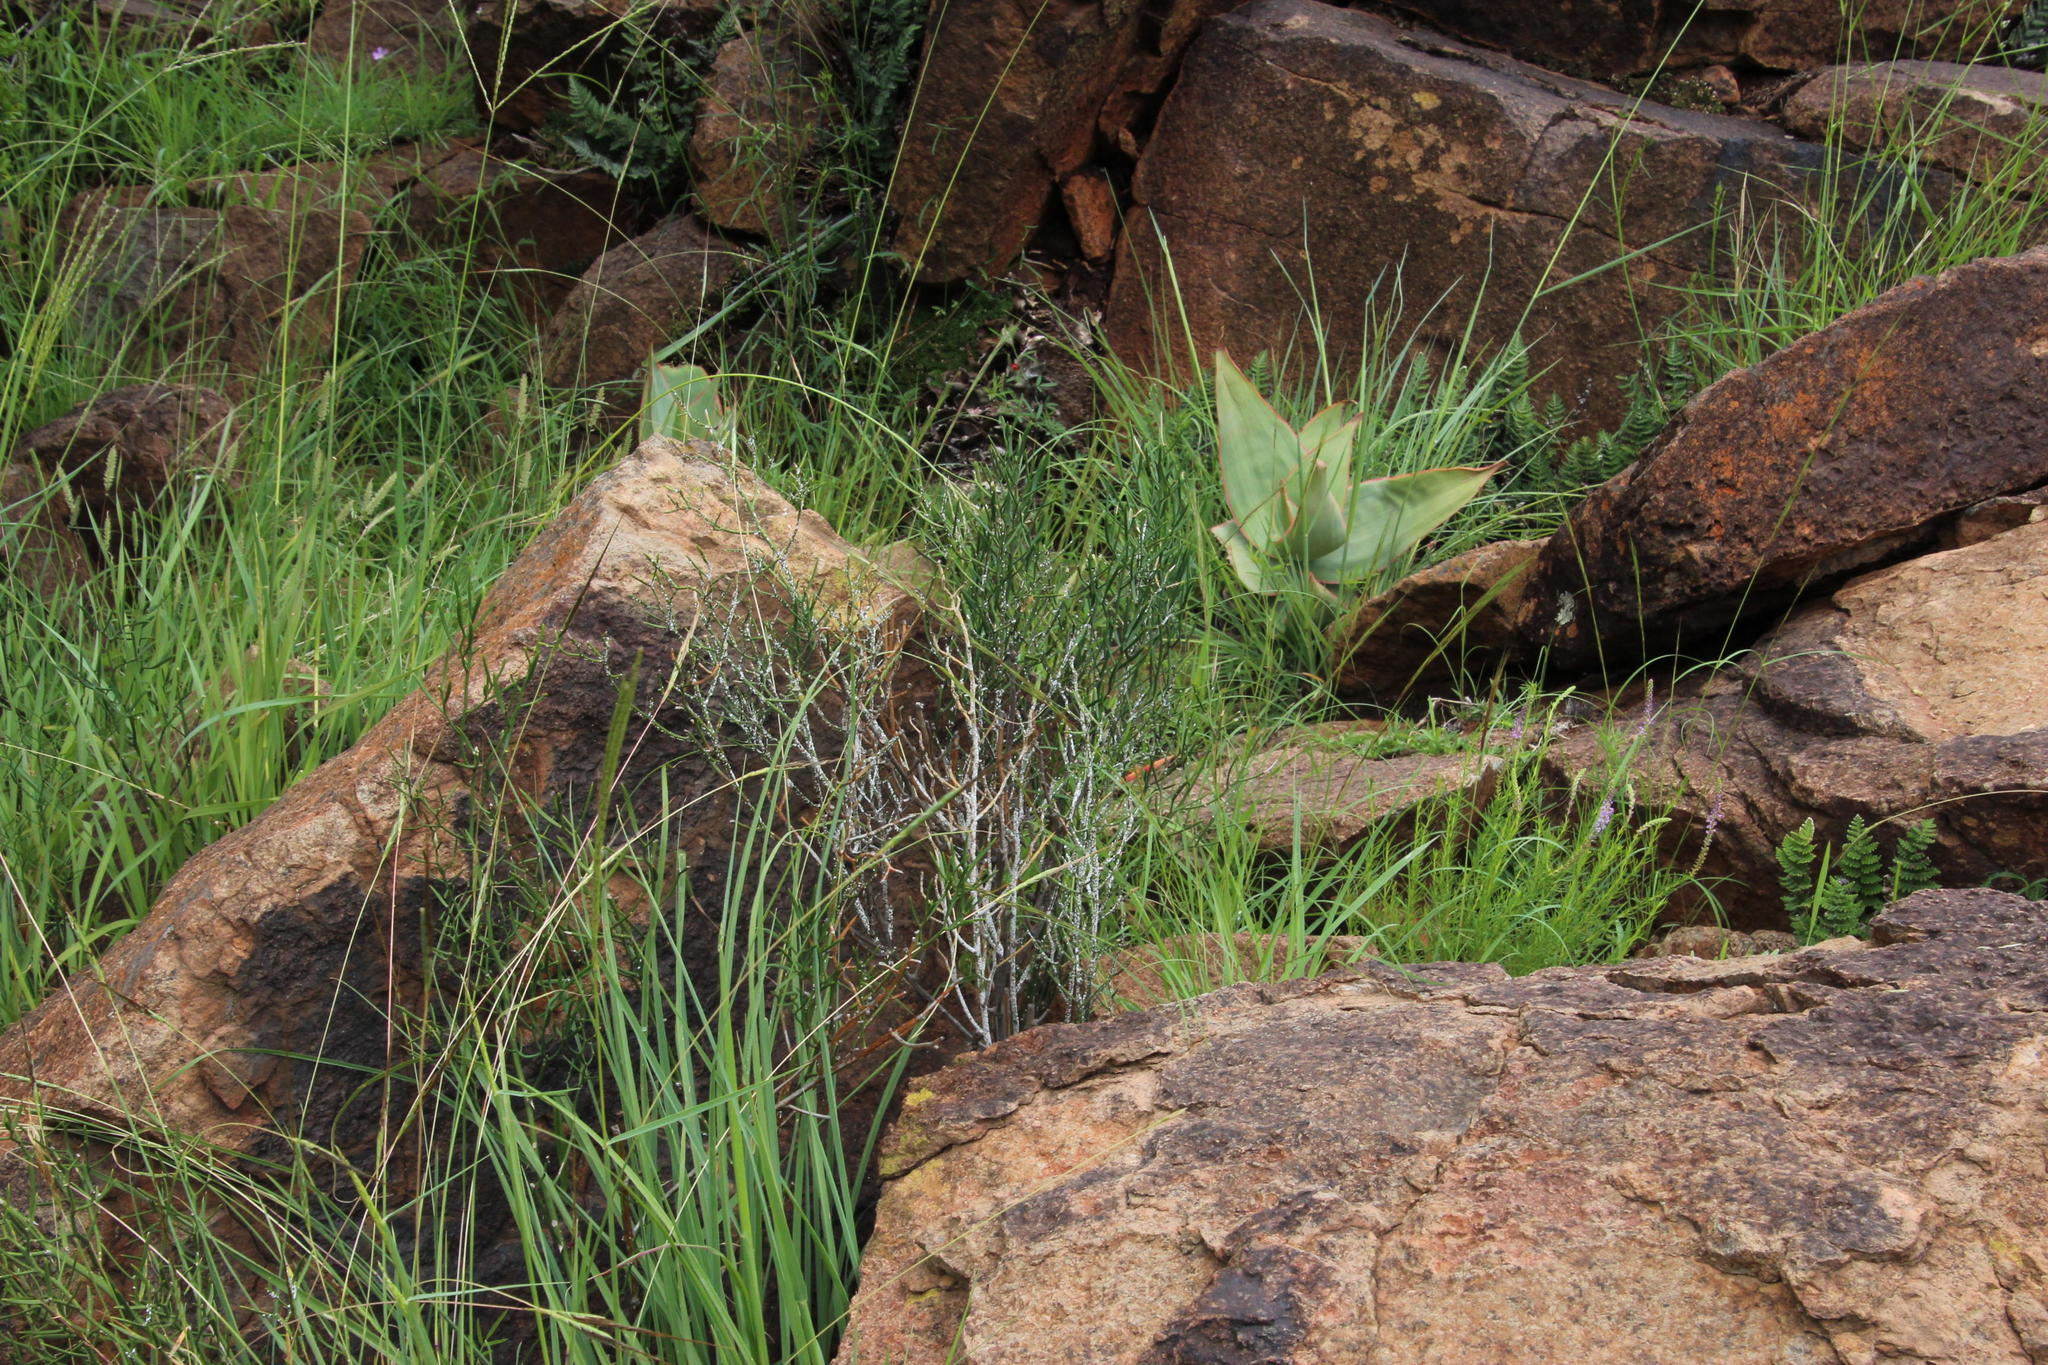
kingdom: Plantae
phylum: Tracheophyta
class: Liliopsida
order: Asparagales
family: Asparagaceae
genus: Asparagus
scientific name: Asparagus striatus
